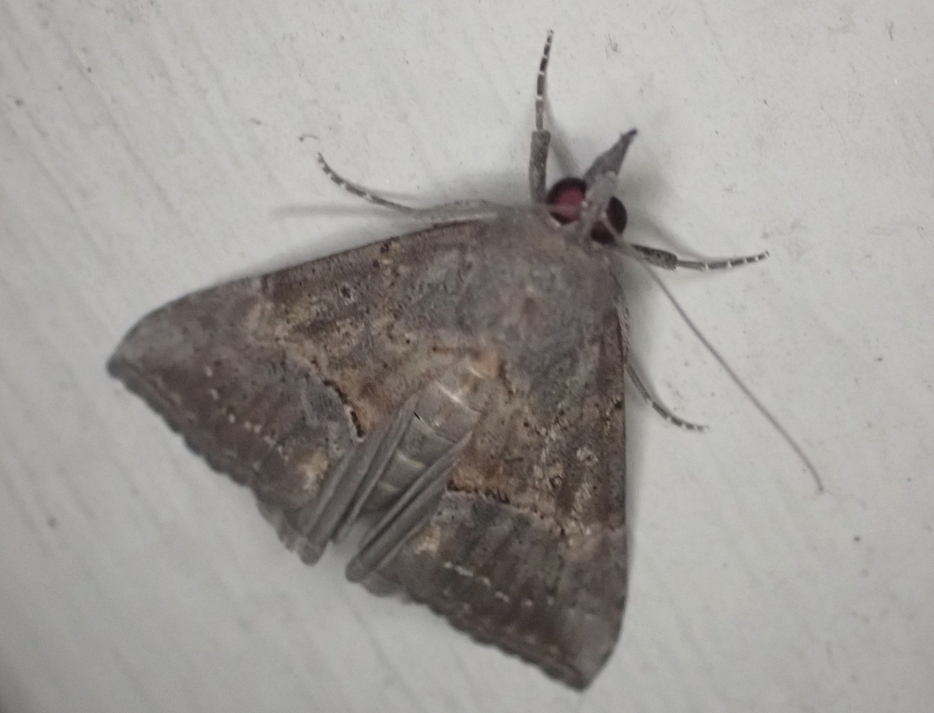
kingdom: Animalia
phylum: Arthropoda
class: Insecta
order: Lepidoptera
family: Erebidae
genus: Hypena
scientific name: Hypena scabra
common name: Green cloverworm
